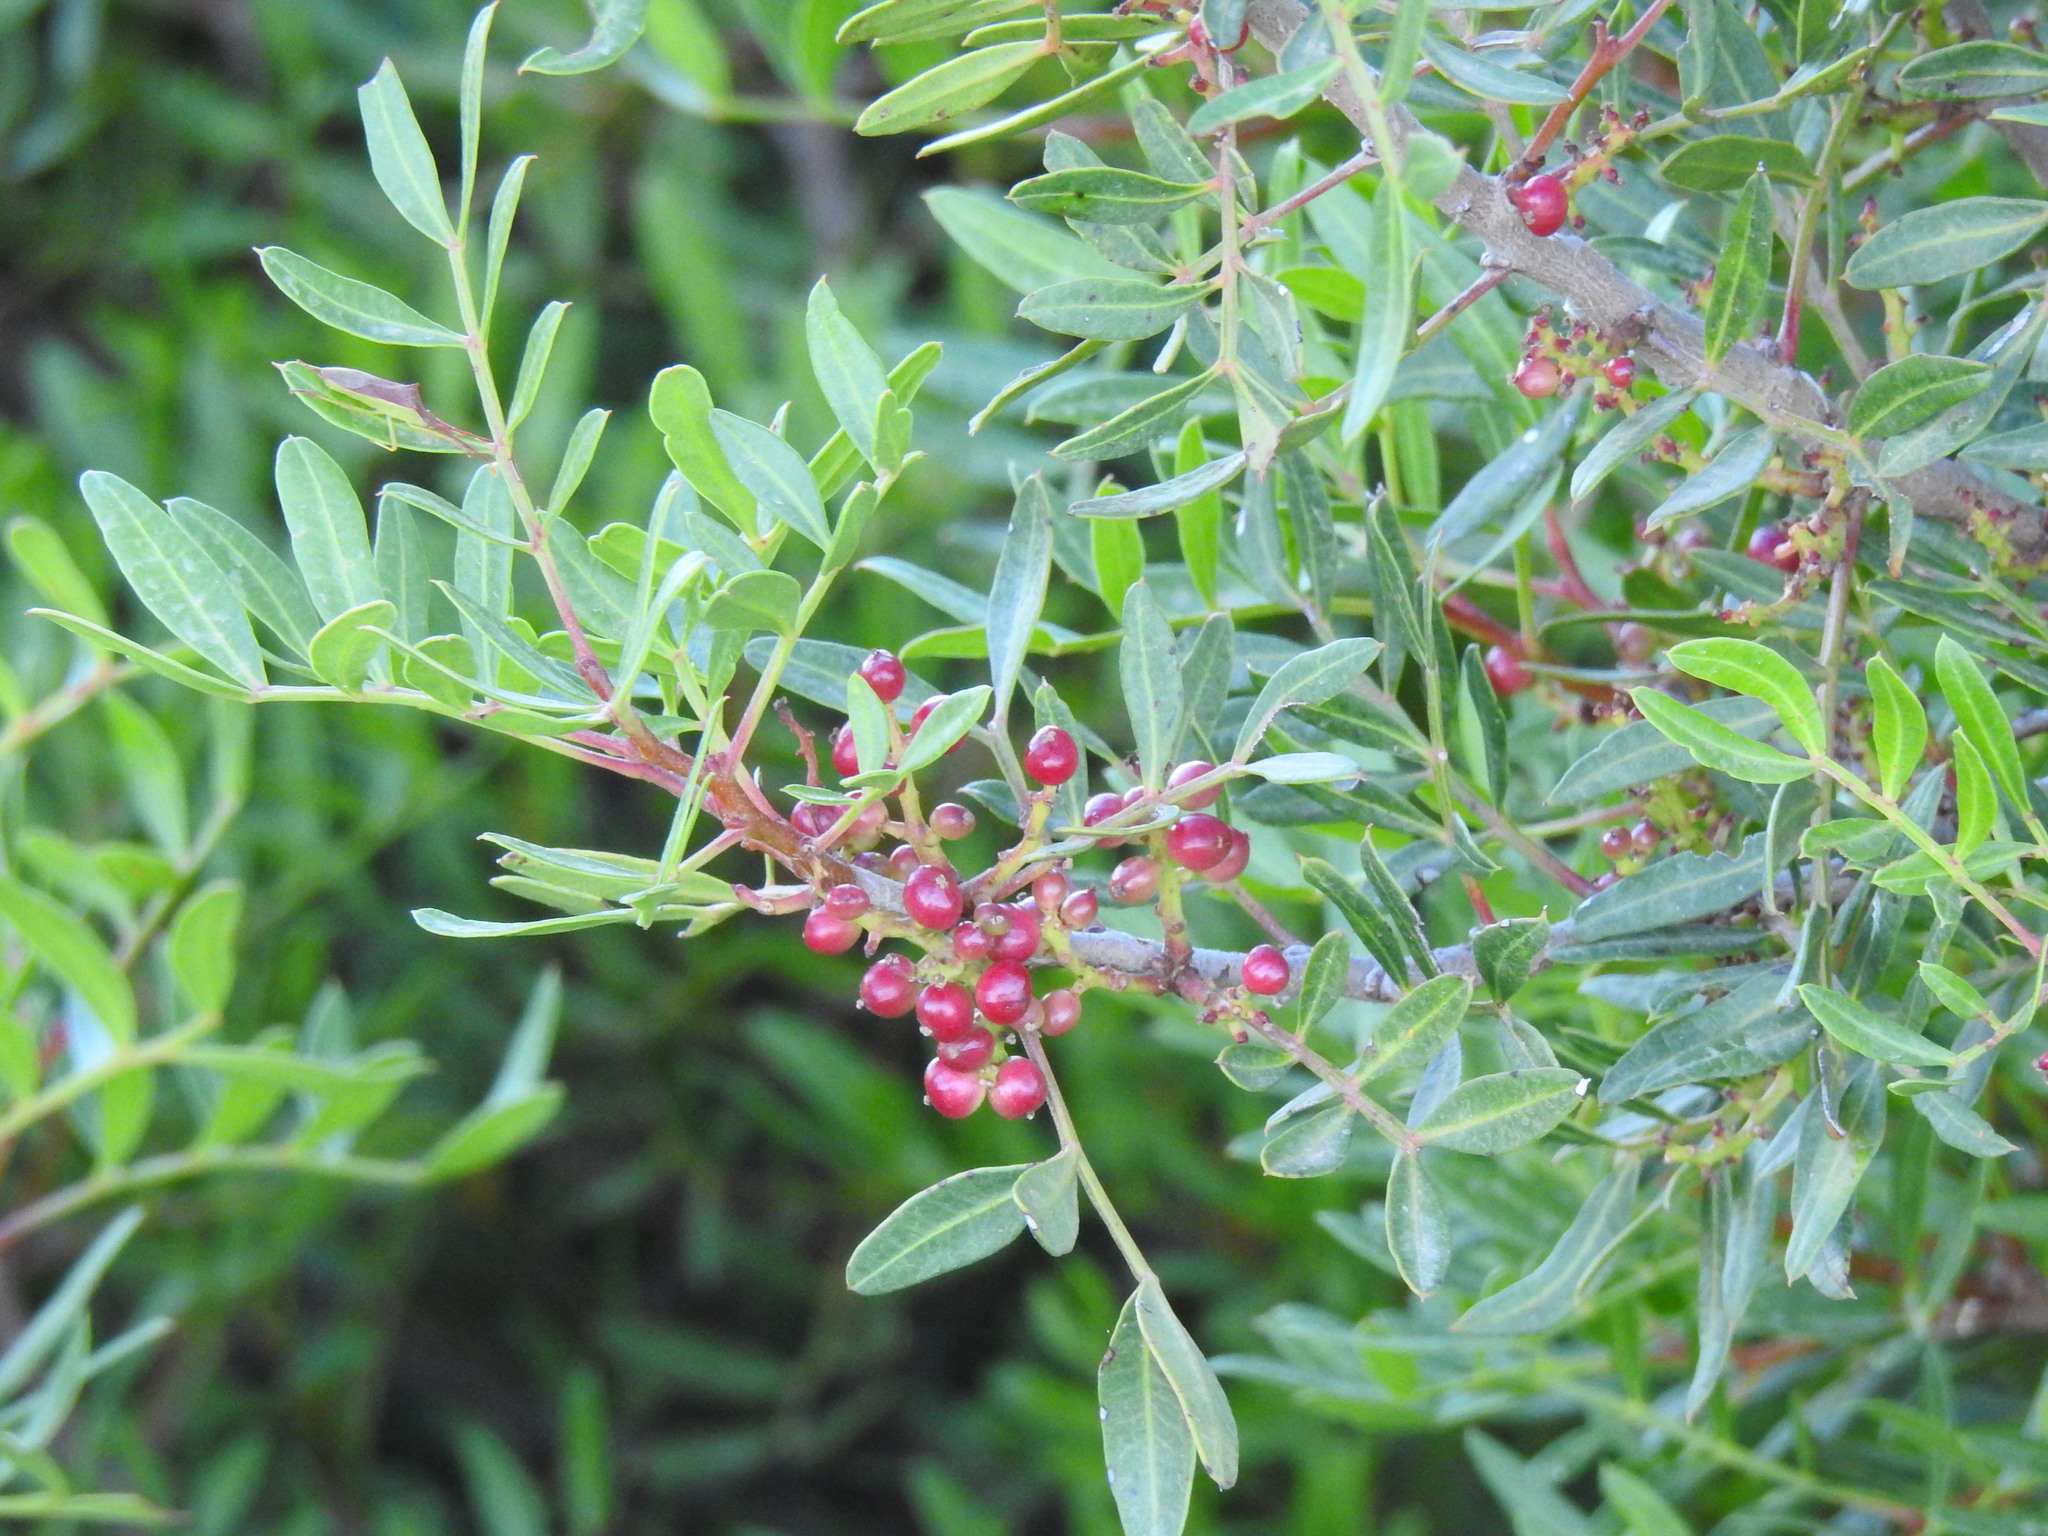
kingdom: Plantae
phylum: Tracheophyta
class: Magnoliopsida
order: Sapindales
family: Anacardiaceae
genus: Pistacia
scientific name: Pistacia lentiscus
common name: Lentisk
